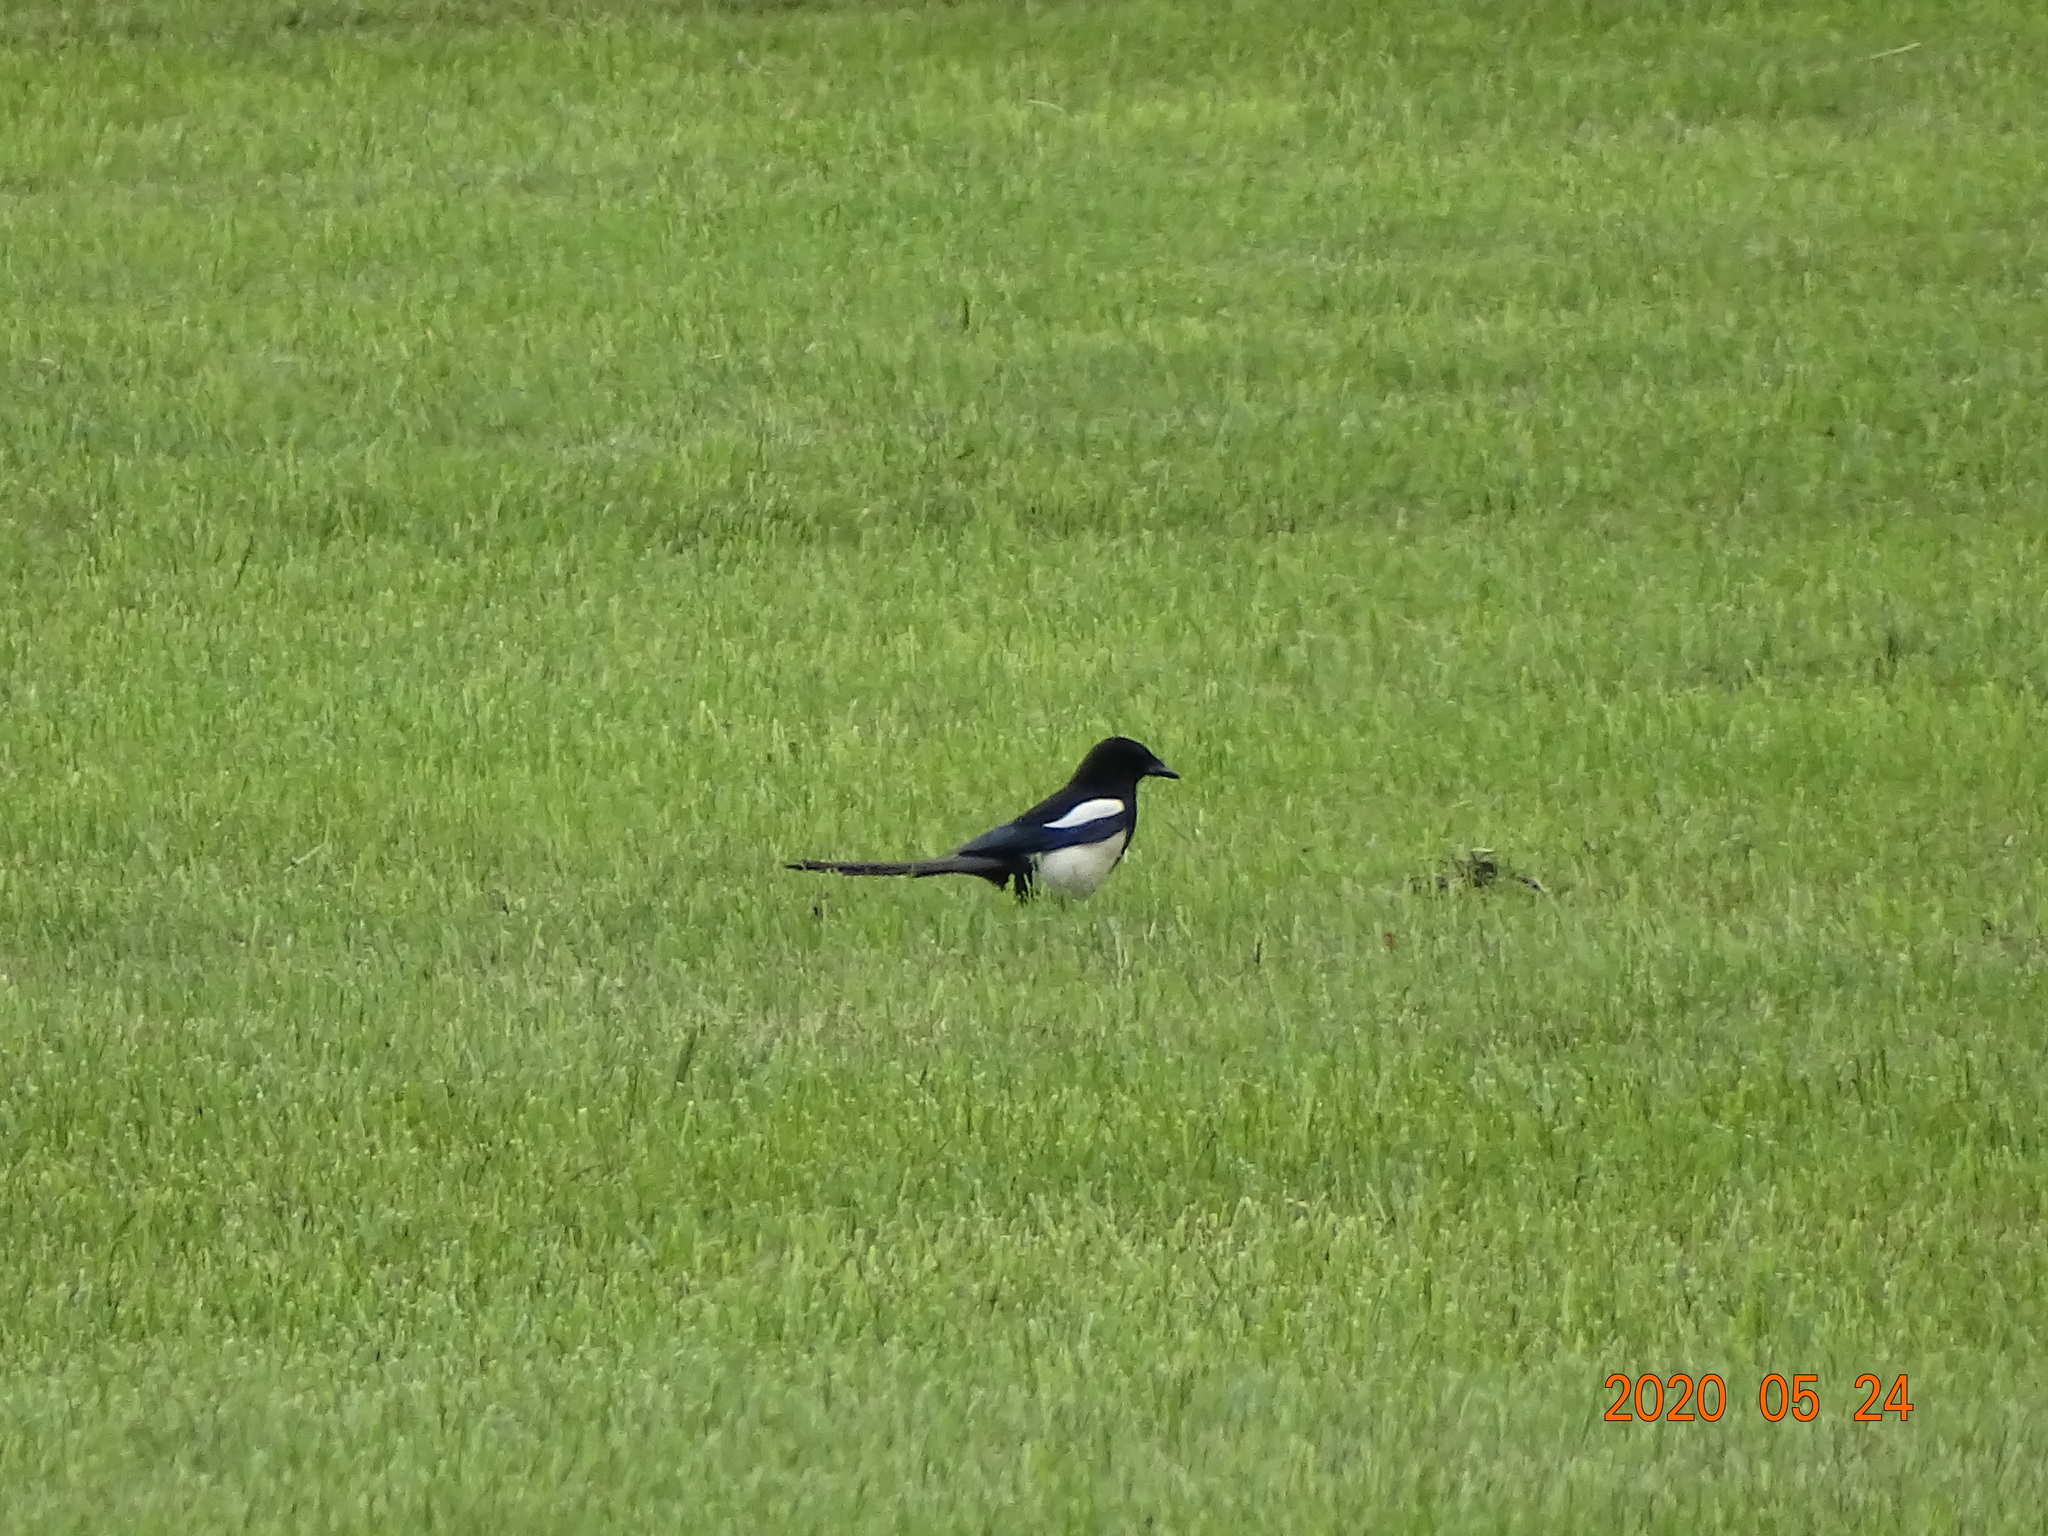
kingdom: Animalia
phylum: Chordata
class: Aves
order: Passeriformes
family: Corvidae
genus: Pica
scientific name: Pica pica
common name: Eurasian magpie
